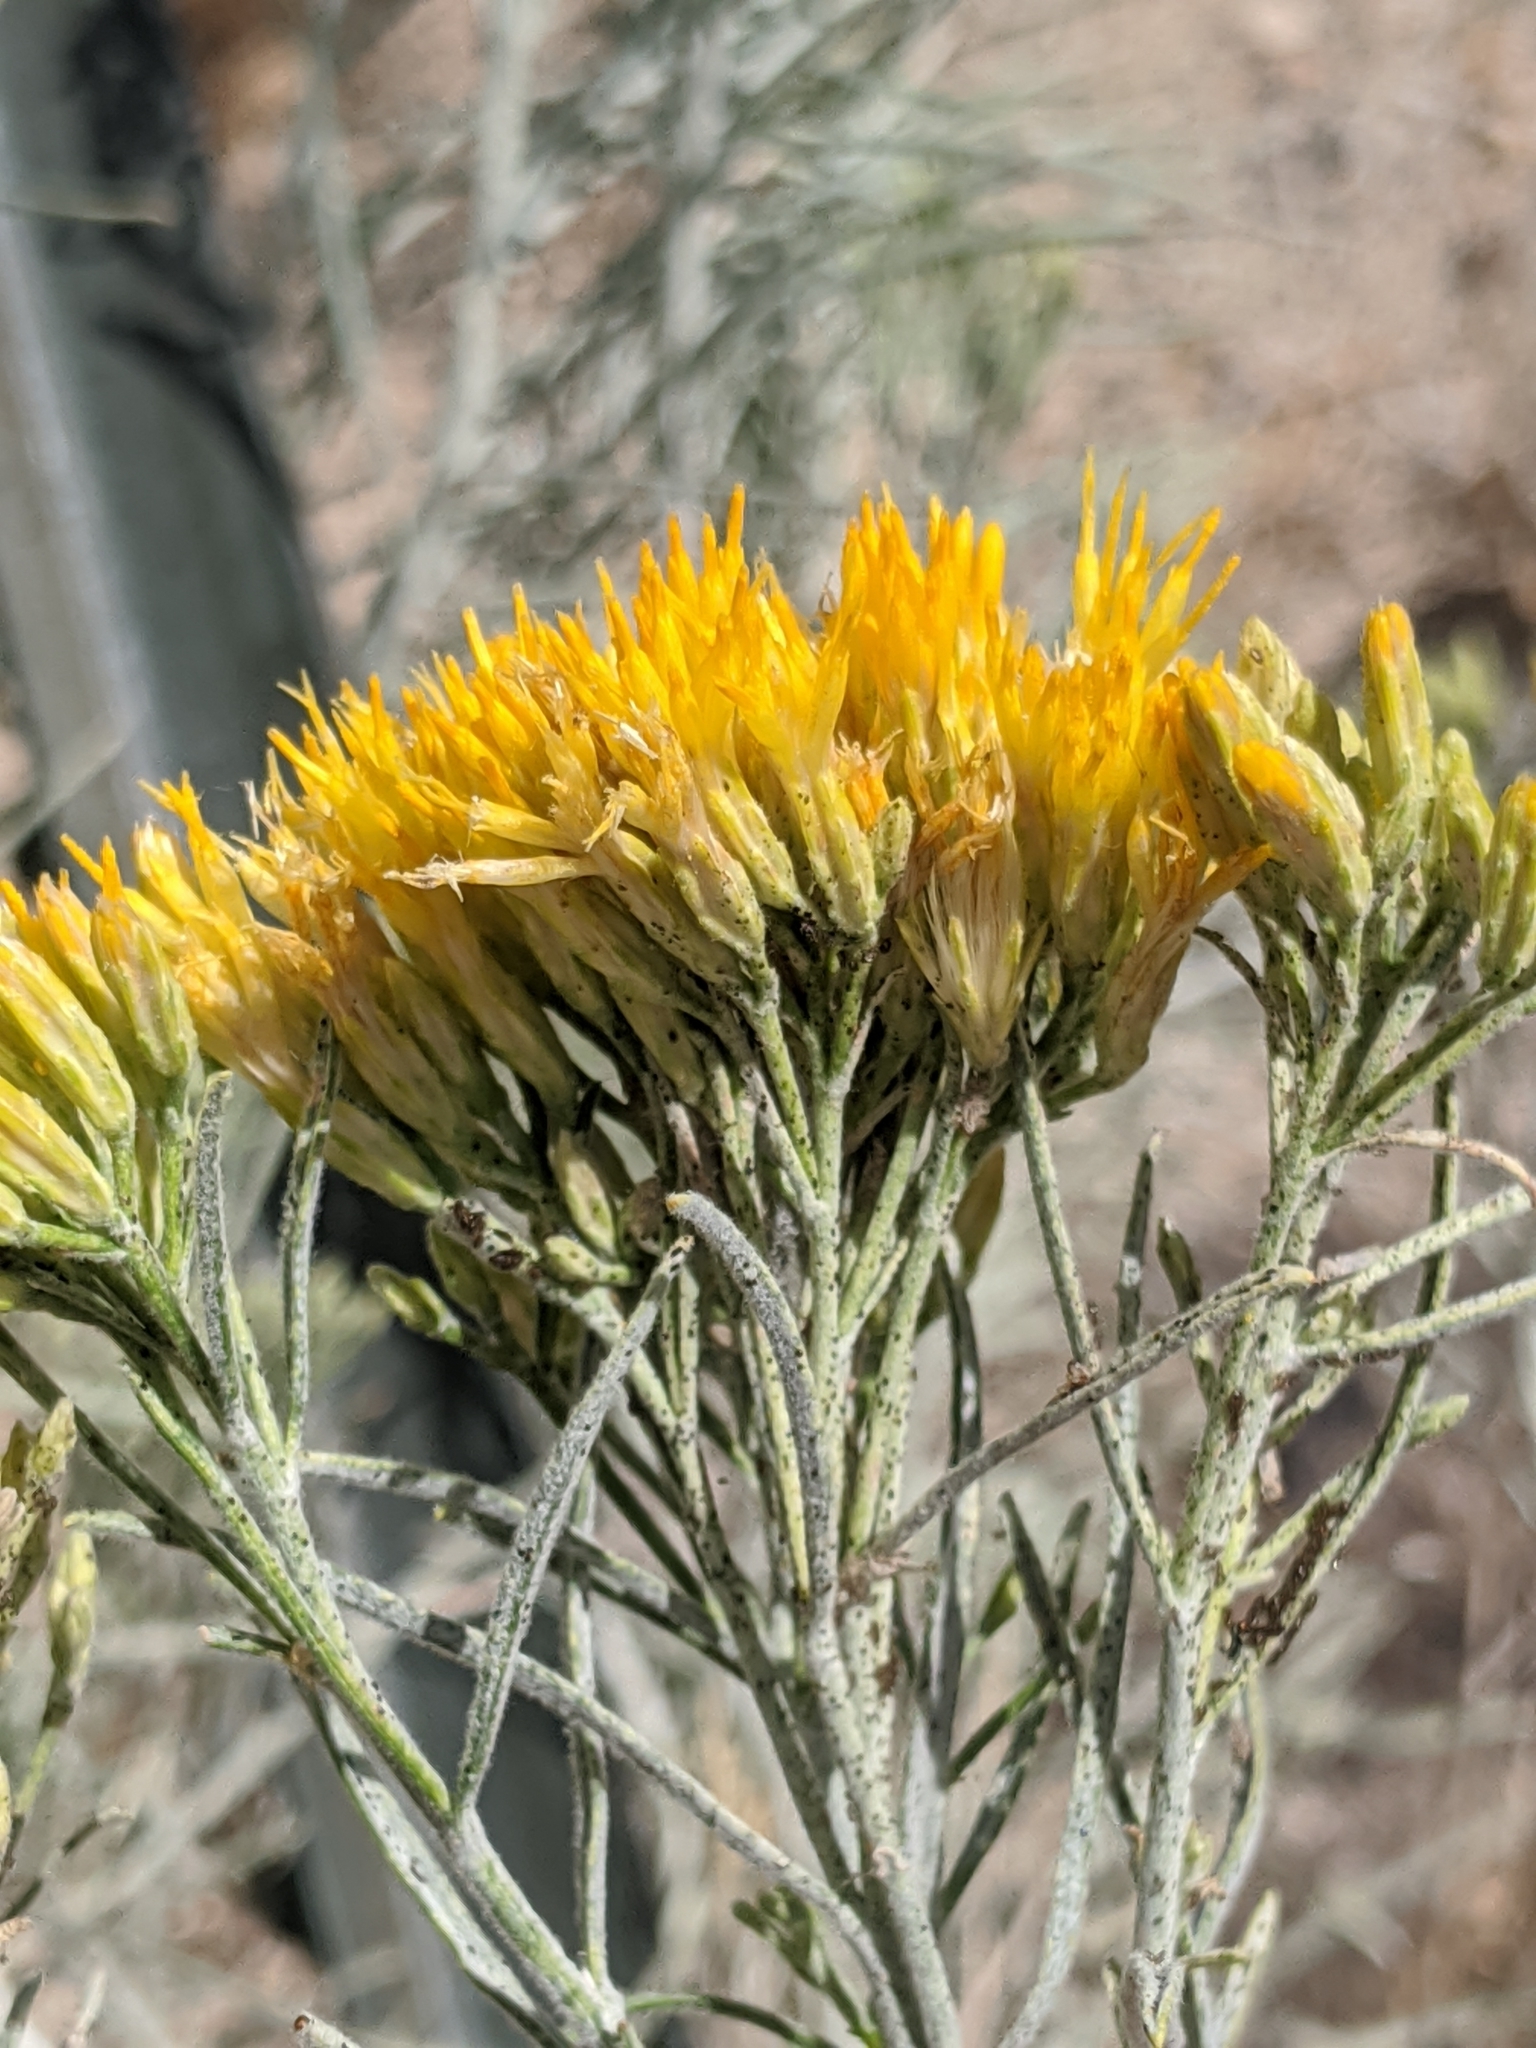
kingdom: Plantae
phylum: Tracheophyta
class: Magnoliopsida
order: Asterales
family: Asteraceae
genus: Ericameria
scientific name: Ericameria nauseosa
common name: Rubber rabbitbrush
